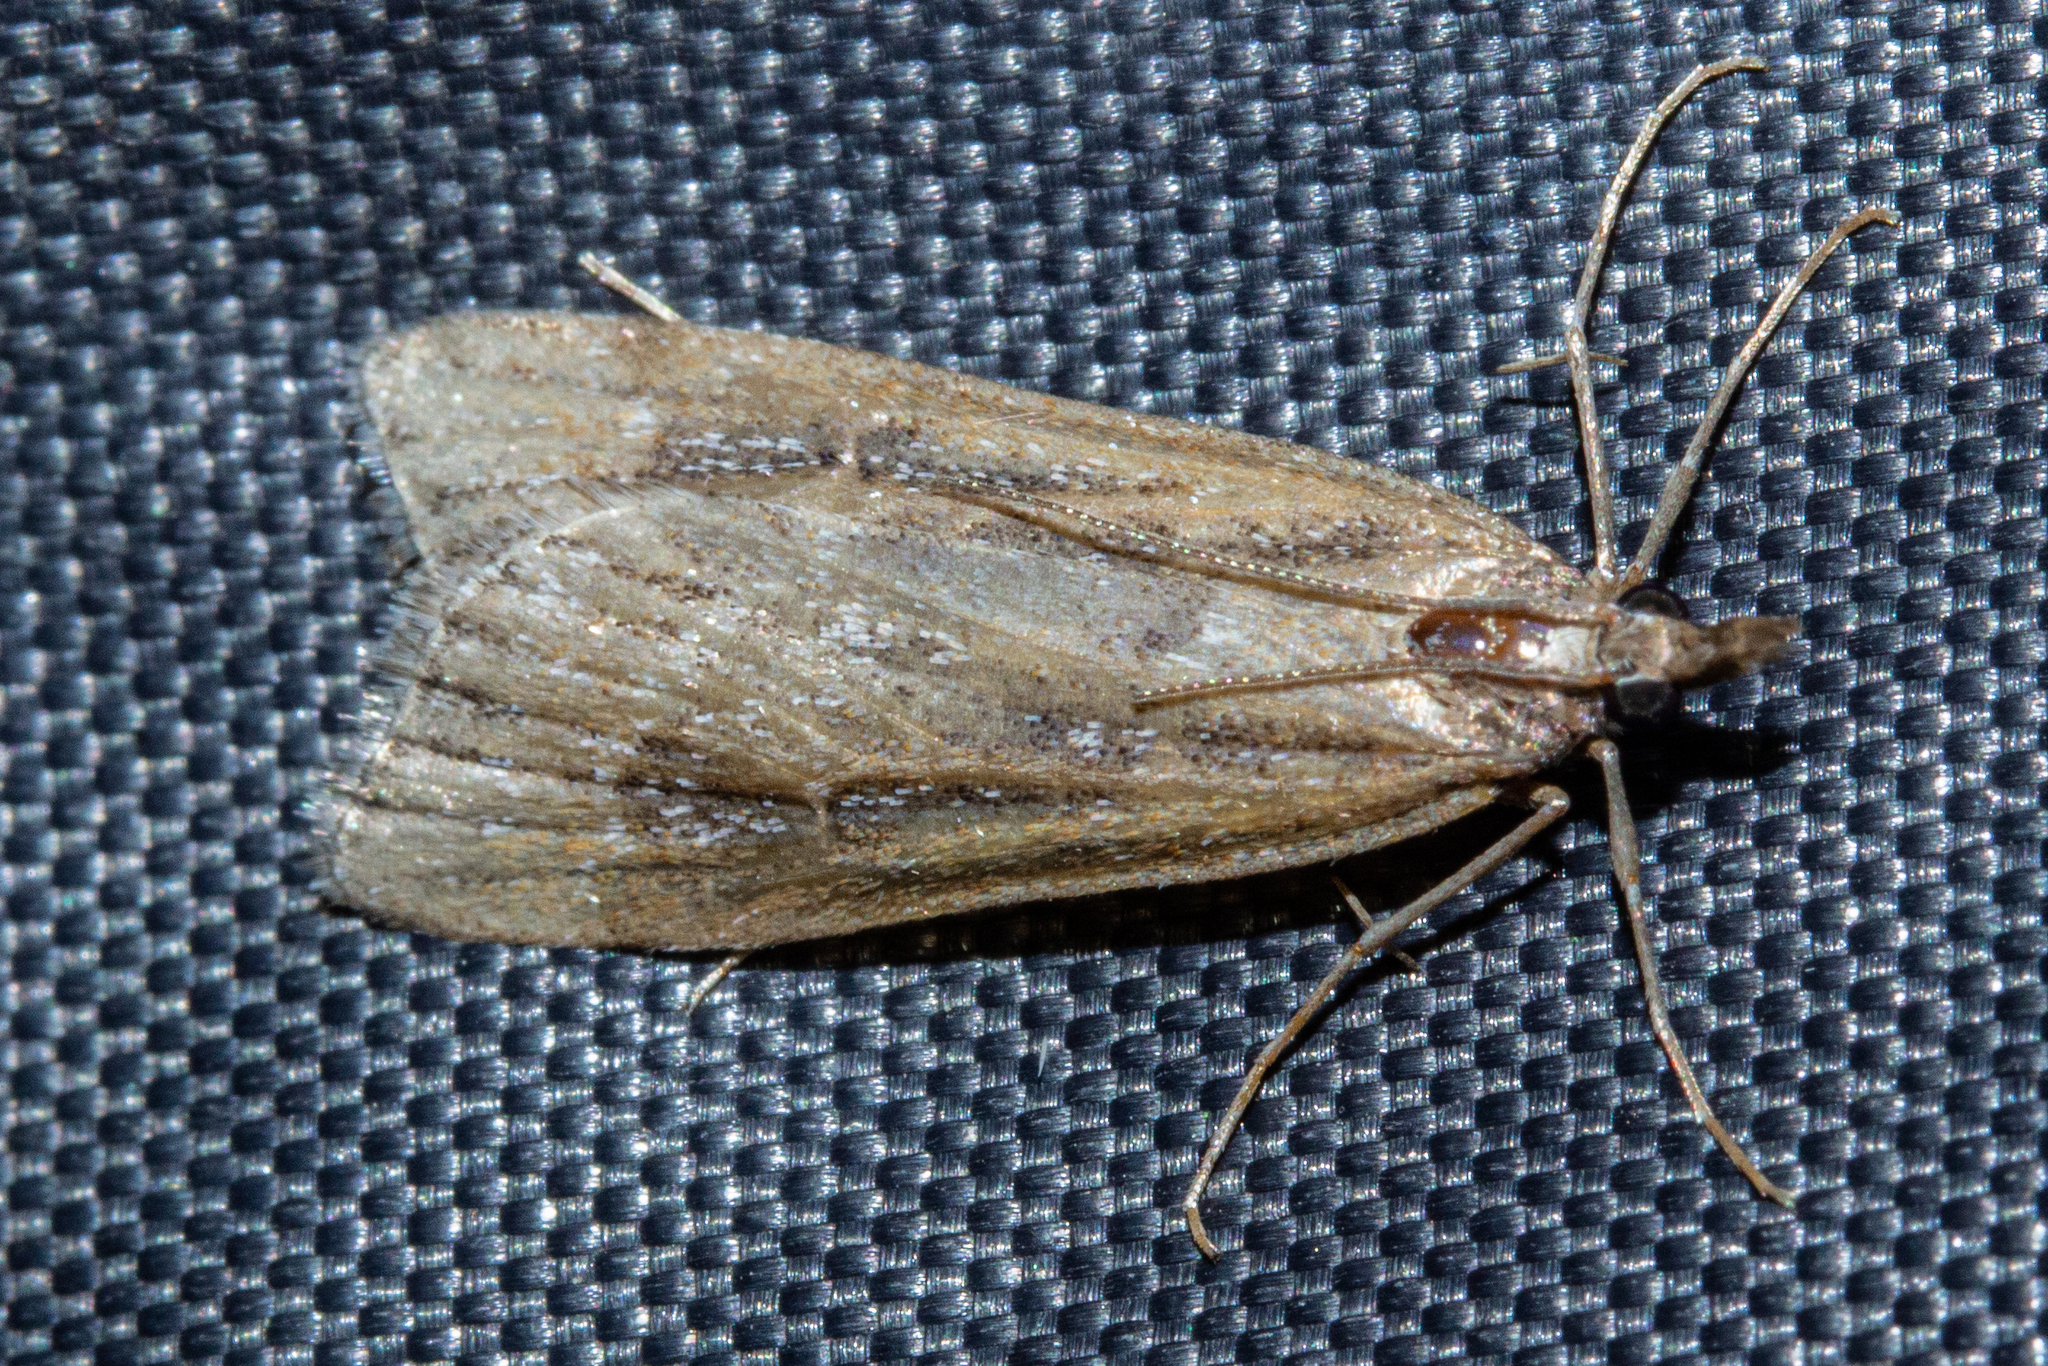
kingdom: Animalia
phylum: Arthropoda
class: Insecta
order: Lepidoptera
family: Crambidae
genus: Eudonia
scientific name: Eudonia octophora
